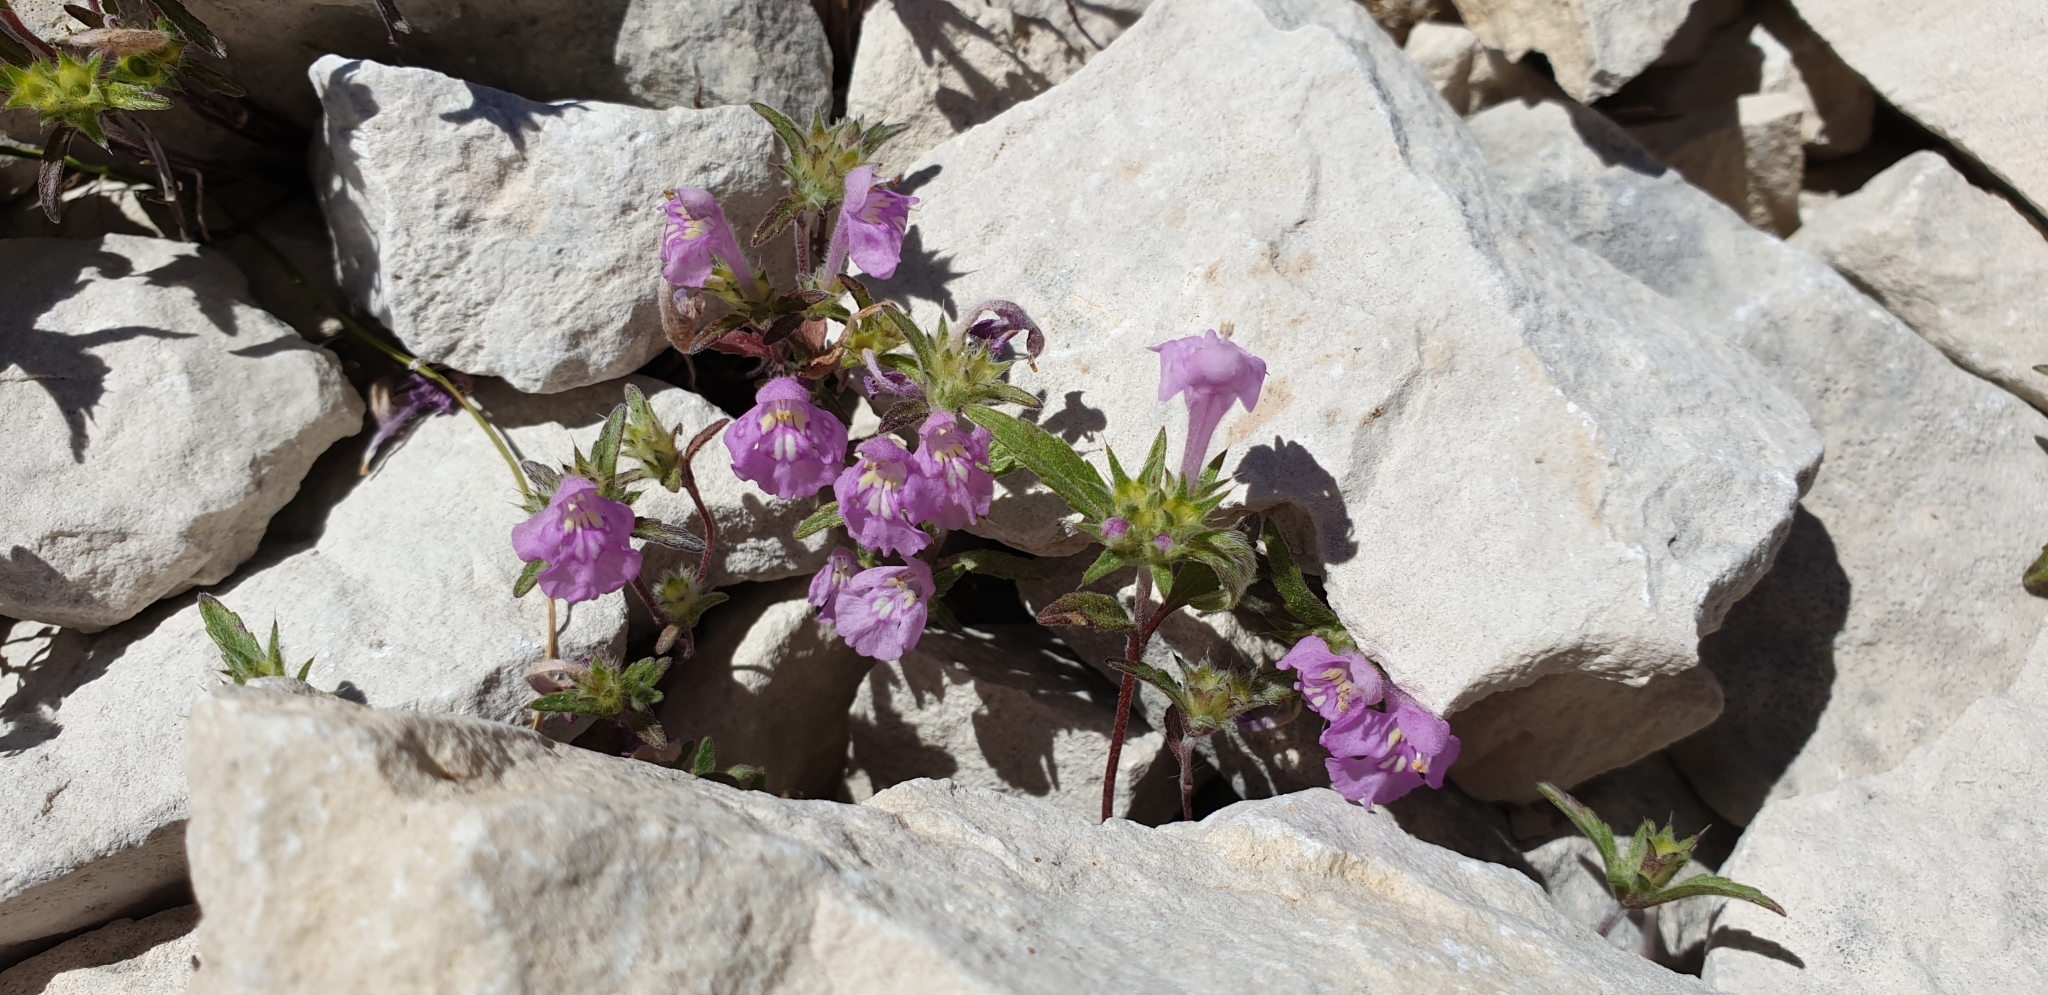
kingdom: Plantae
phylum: Tracheophyta
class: Magnoliopsida
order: Lamiales
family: Lamiaceae
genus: Galeopsis
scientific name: Galeopsis angustifolia
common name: Red hemp-nettle
